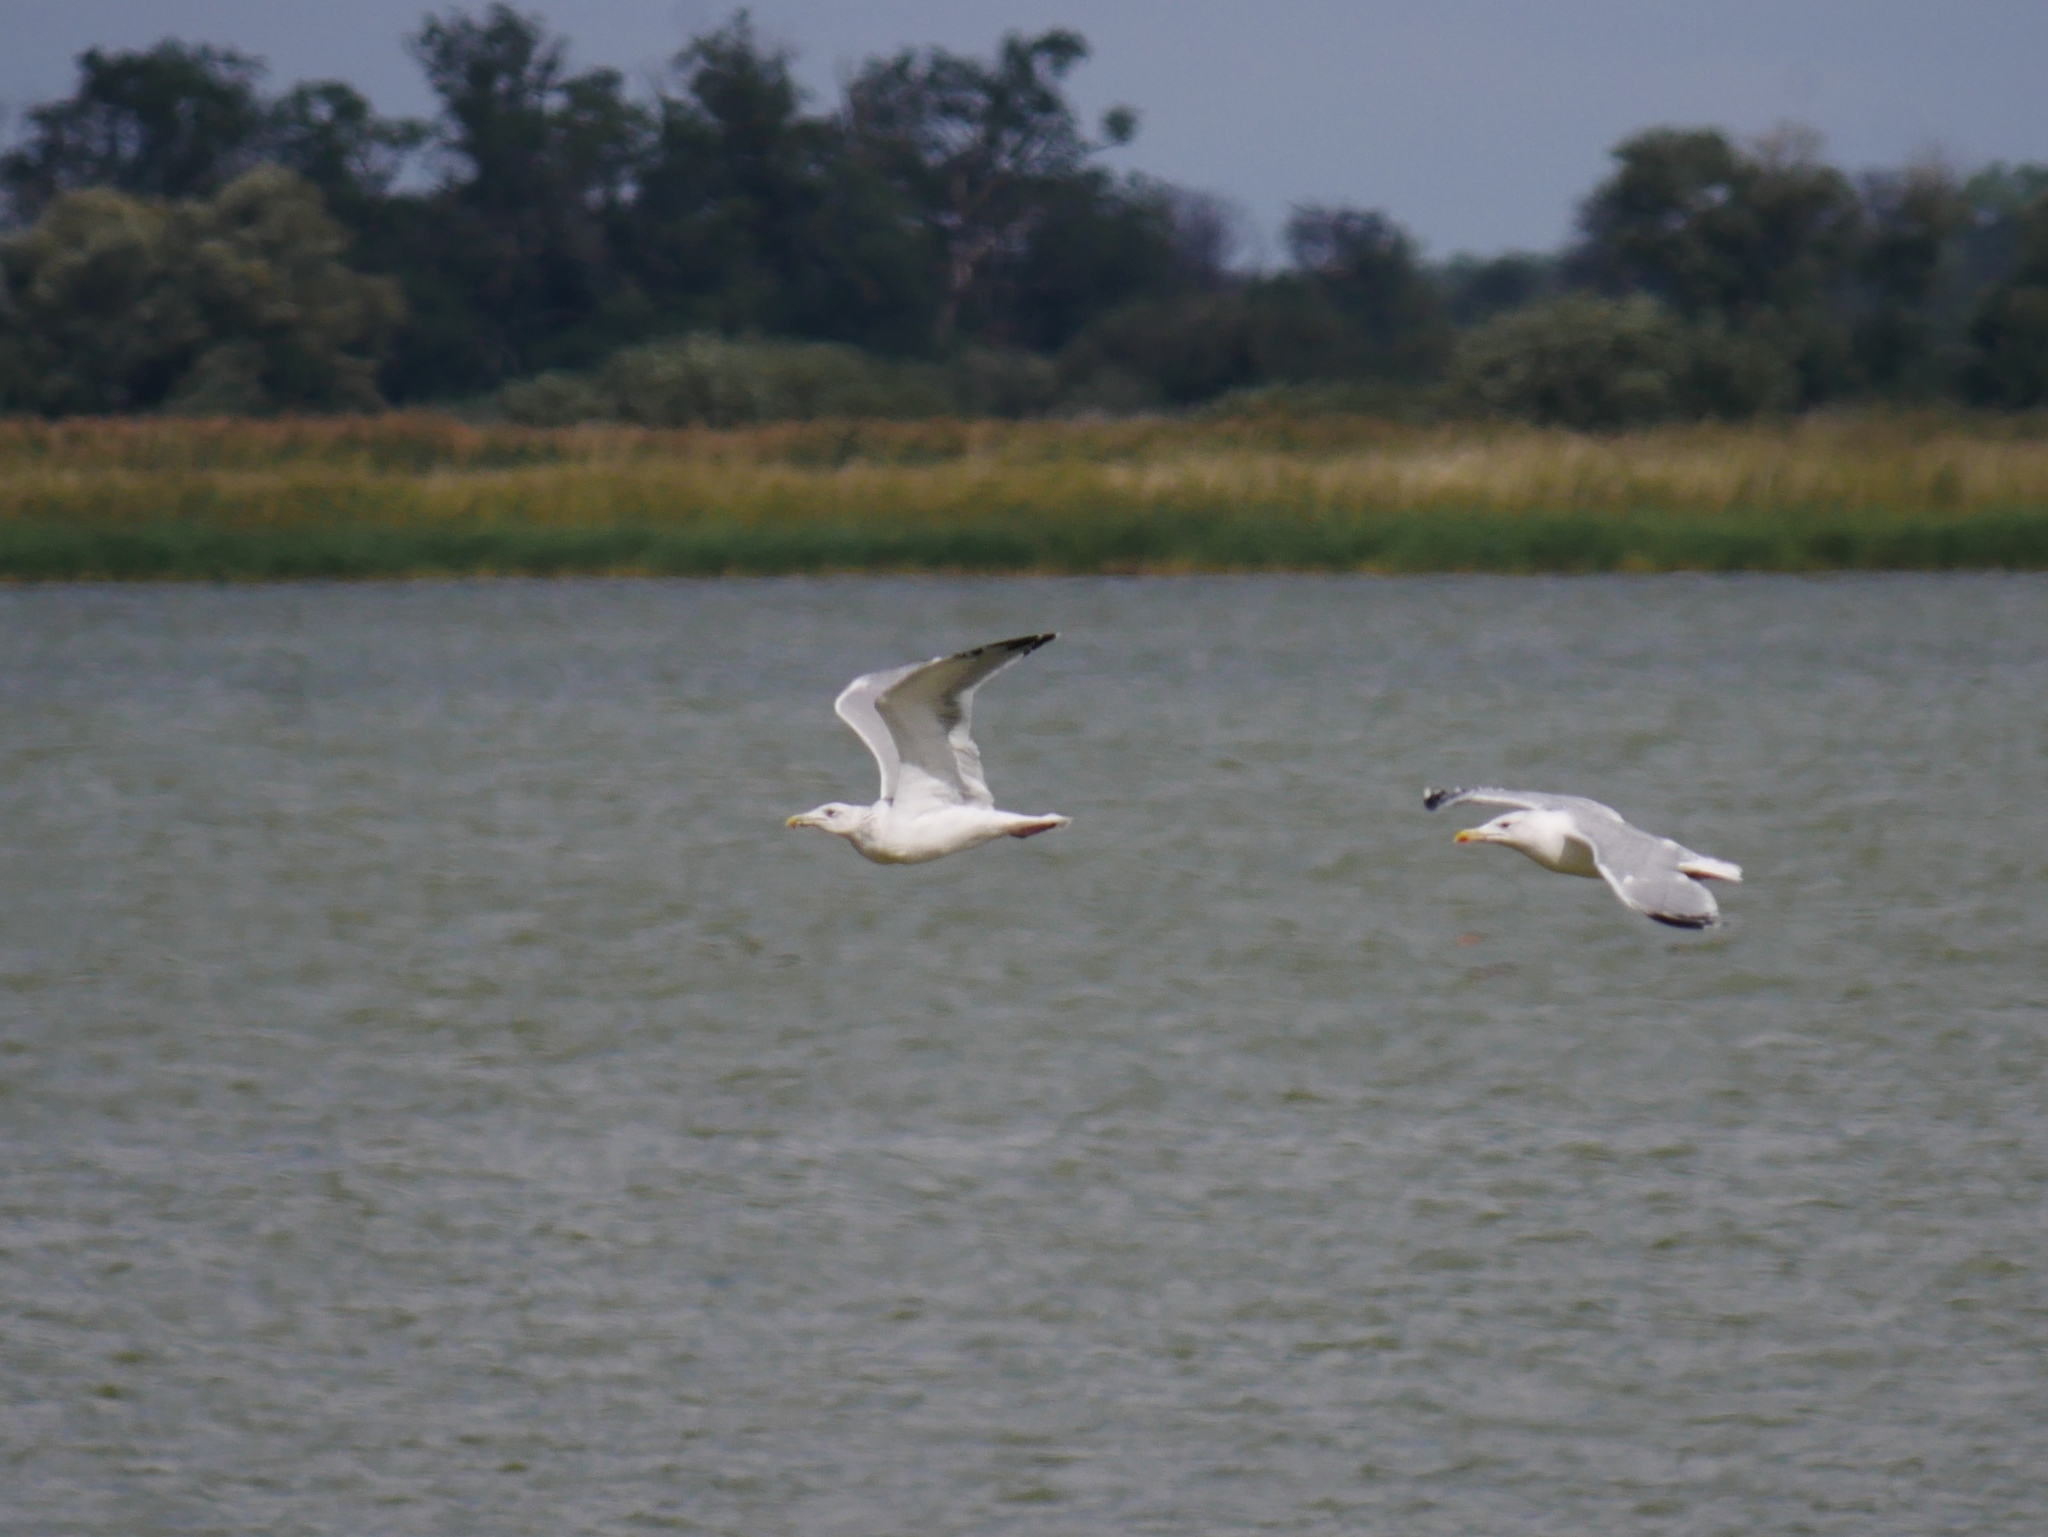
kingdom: Animalia
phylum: Chordata
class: Aves
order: Charadriiformes
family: Laridae
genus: Larus
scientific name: Larus cachinnans
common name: Caspian gull
